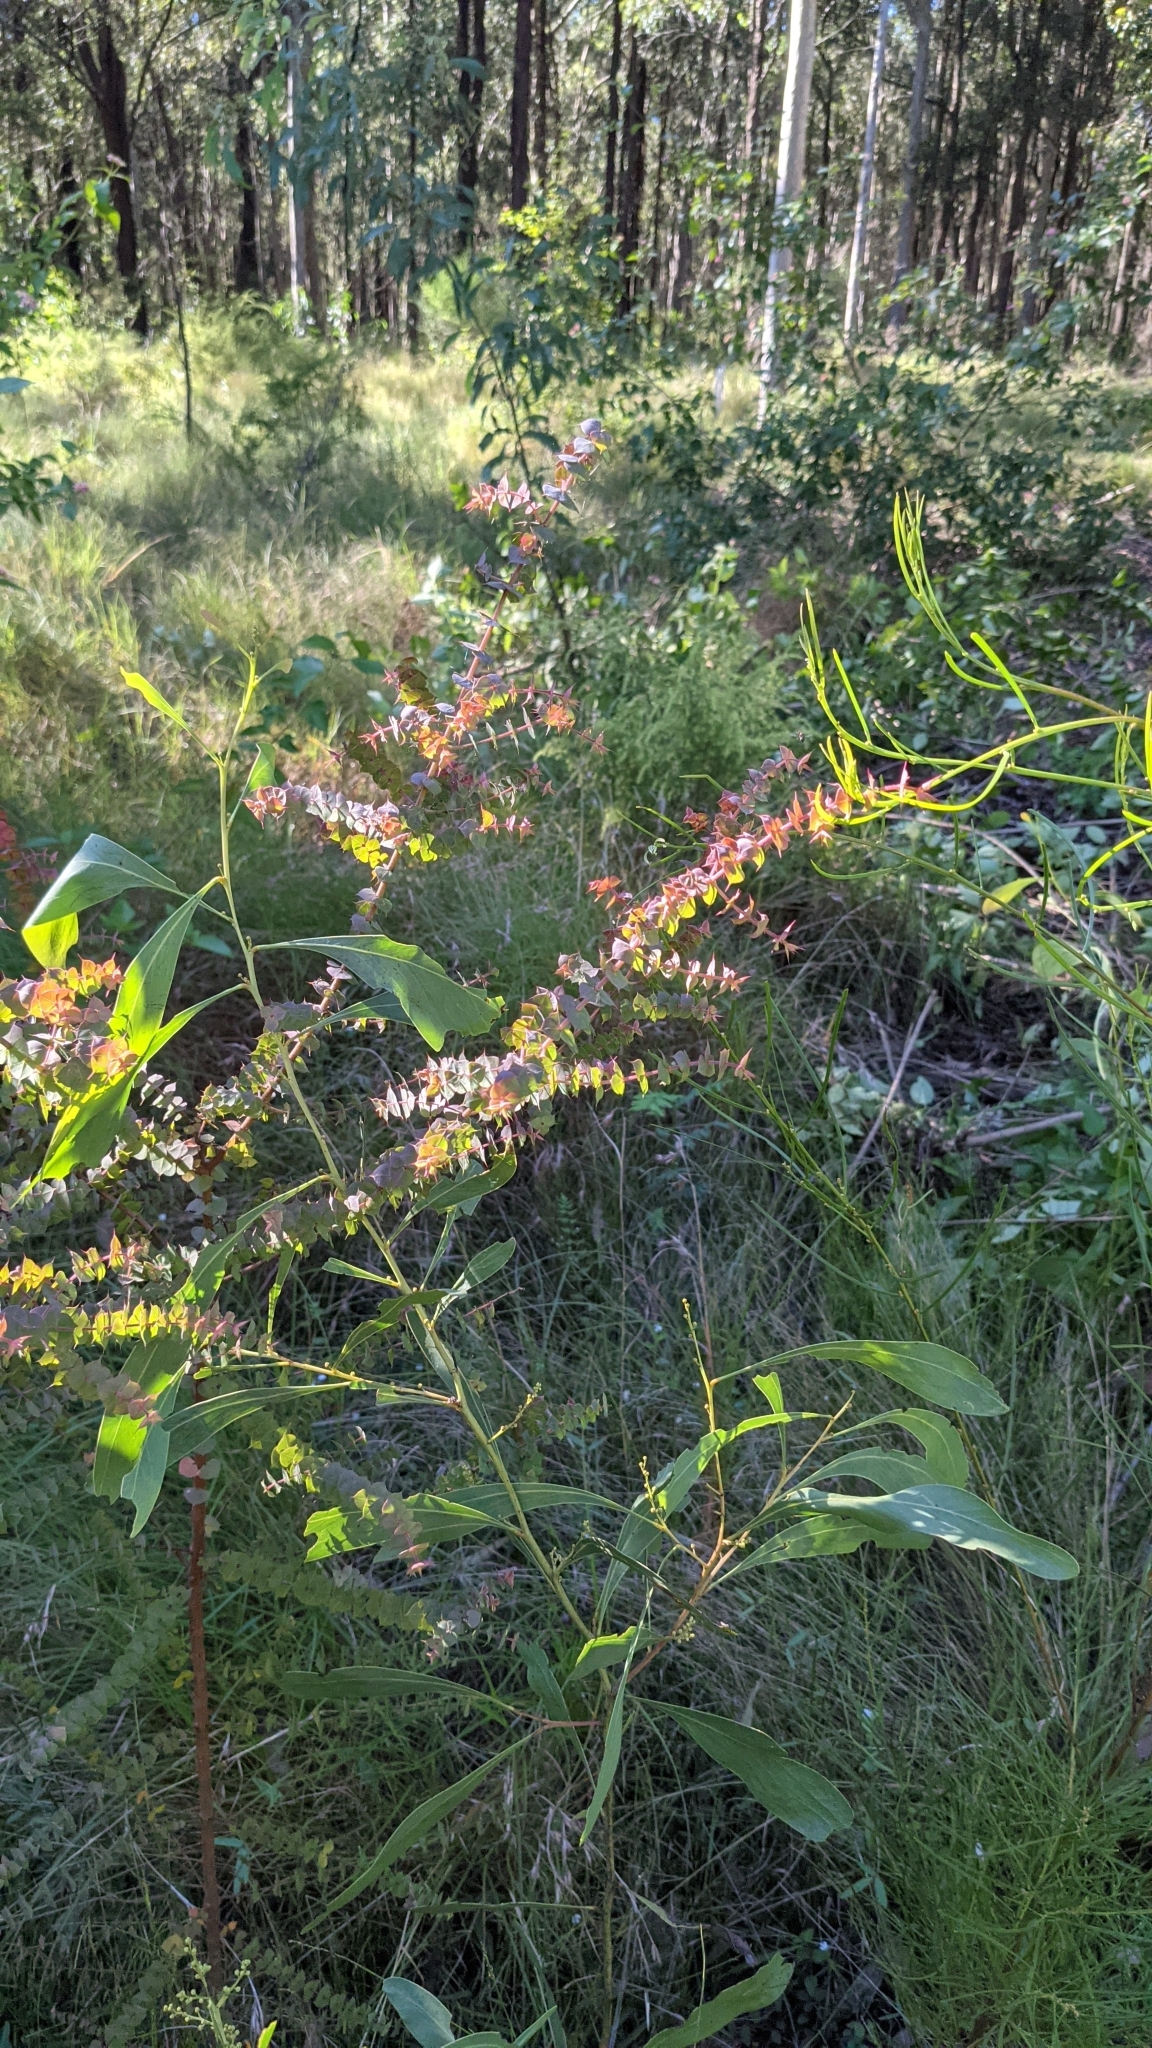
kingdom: Plantae
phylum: Tracheophyta
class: Magnoliopsida
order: Fabales
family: Fabaceae
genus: Pultenaea
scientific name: Pultenaea spinosa
